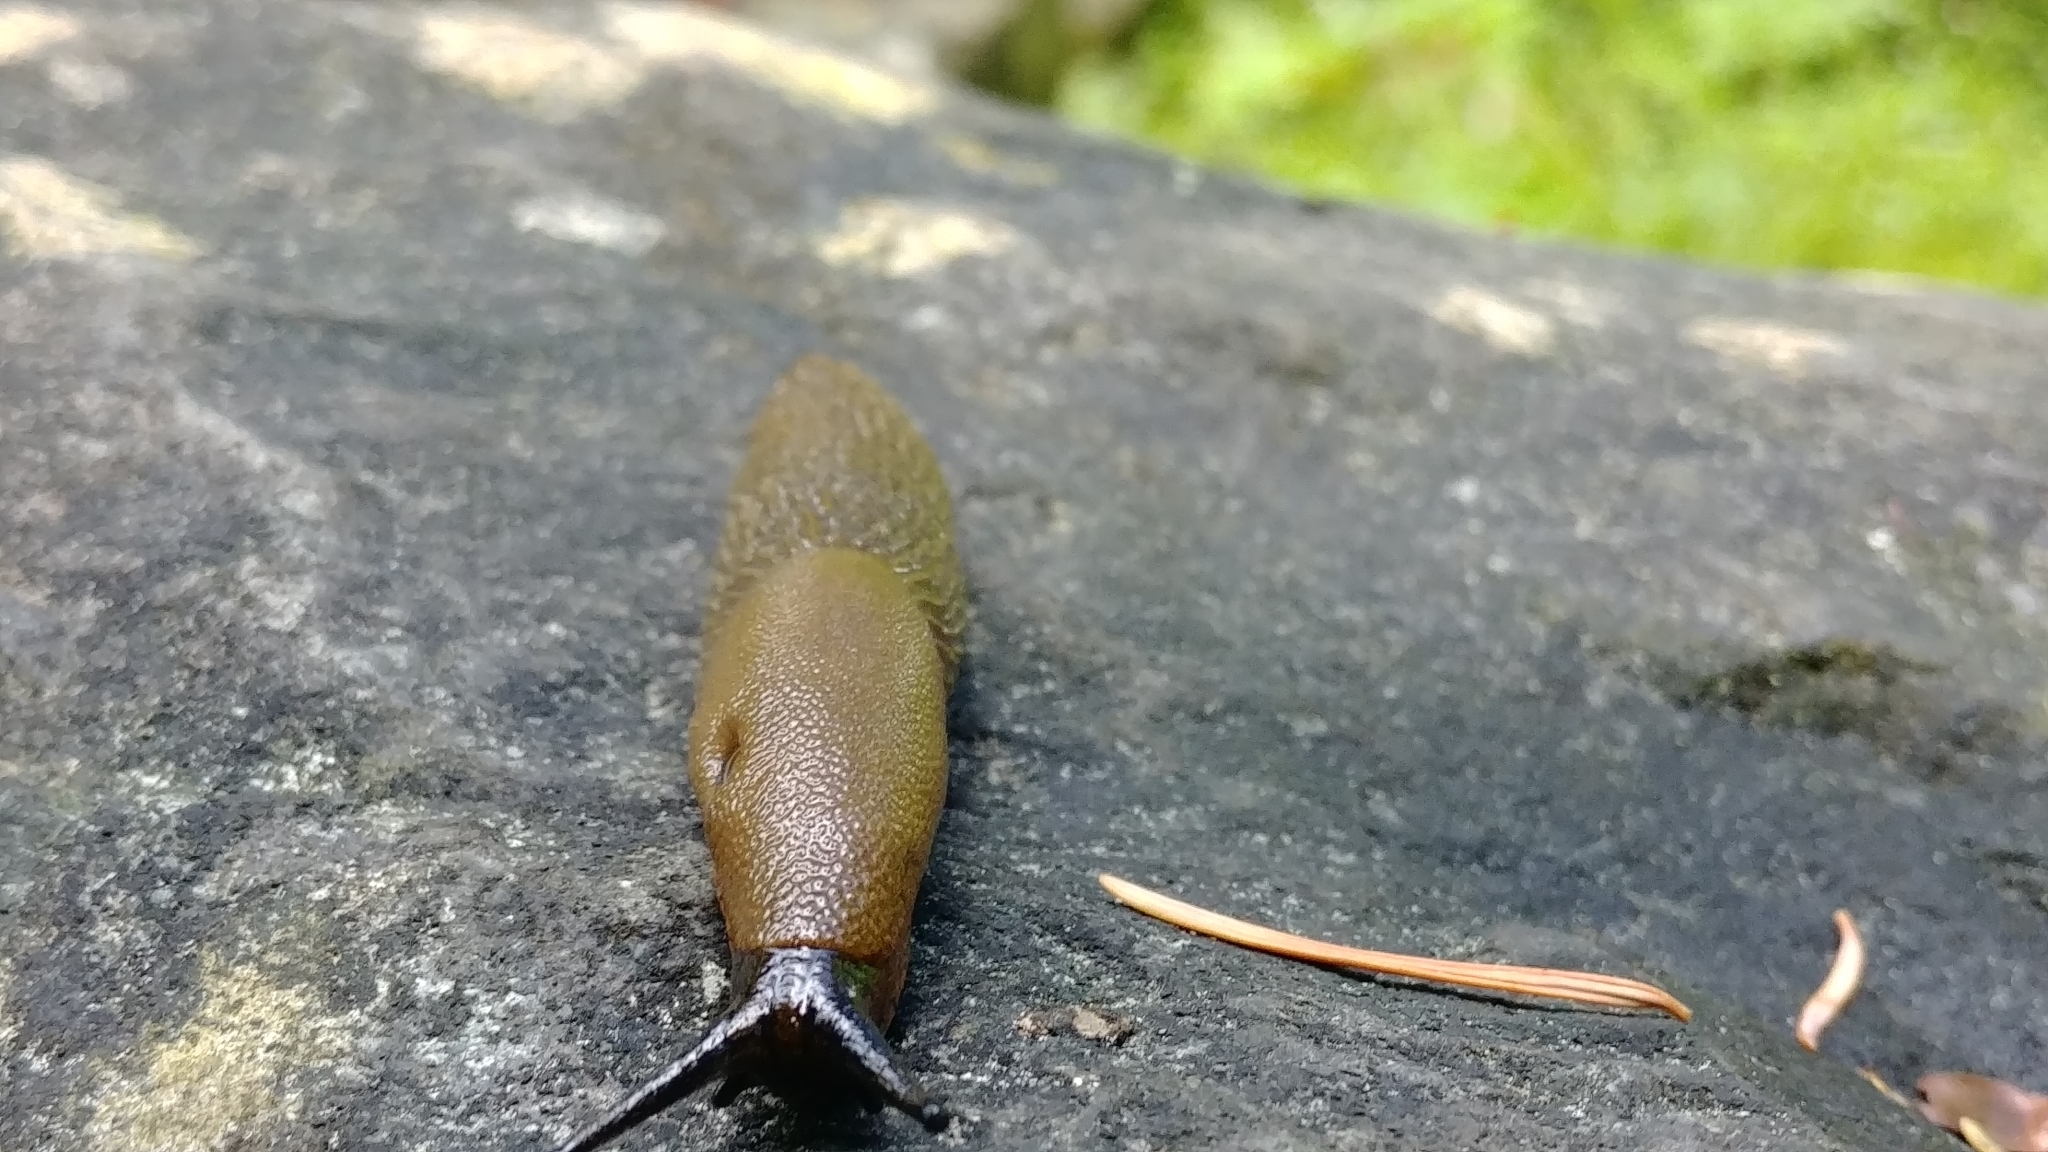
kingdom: Animalia
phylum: Mollusca
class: Gastropoda
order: Stylommatophora
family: Arionidae
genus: Arion
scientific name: Arion rufus
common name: Chocolate arion
